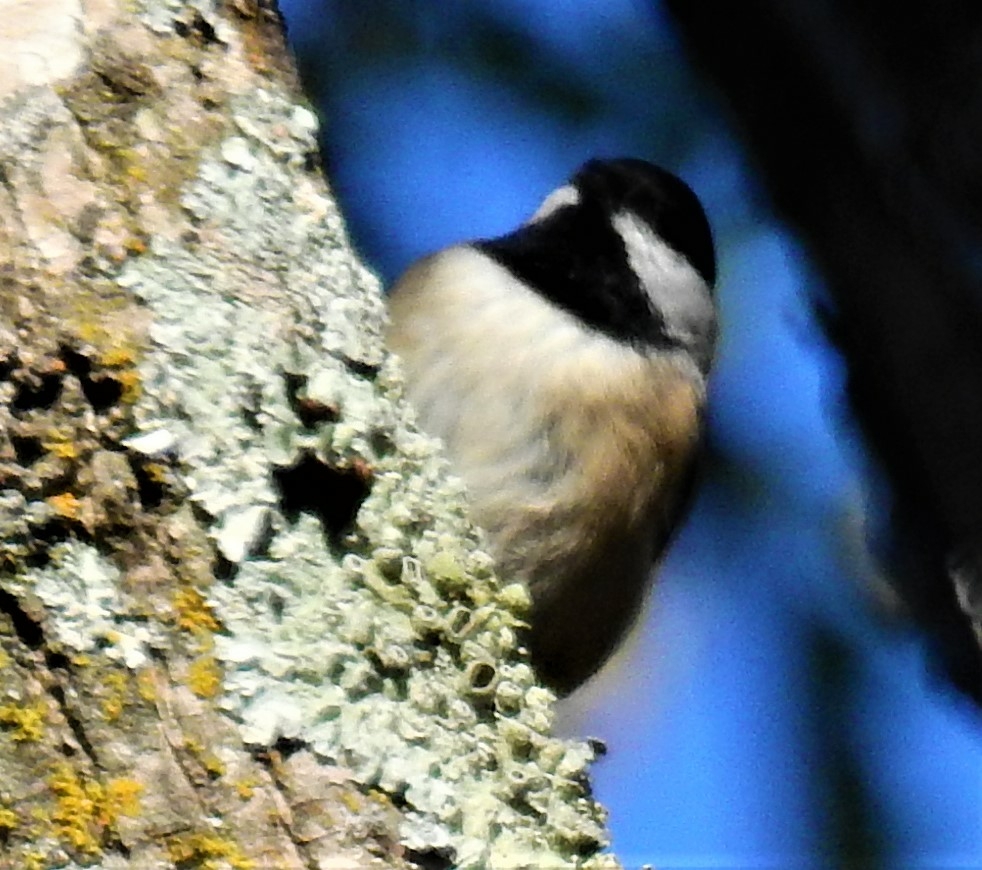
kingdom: Animalia
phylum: Chordata
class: Aves
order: Passeriformes
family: Paridae
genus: Poecile
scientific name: Poecile carolinensis
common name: Carolina chickadee
